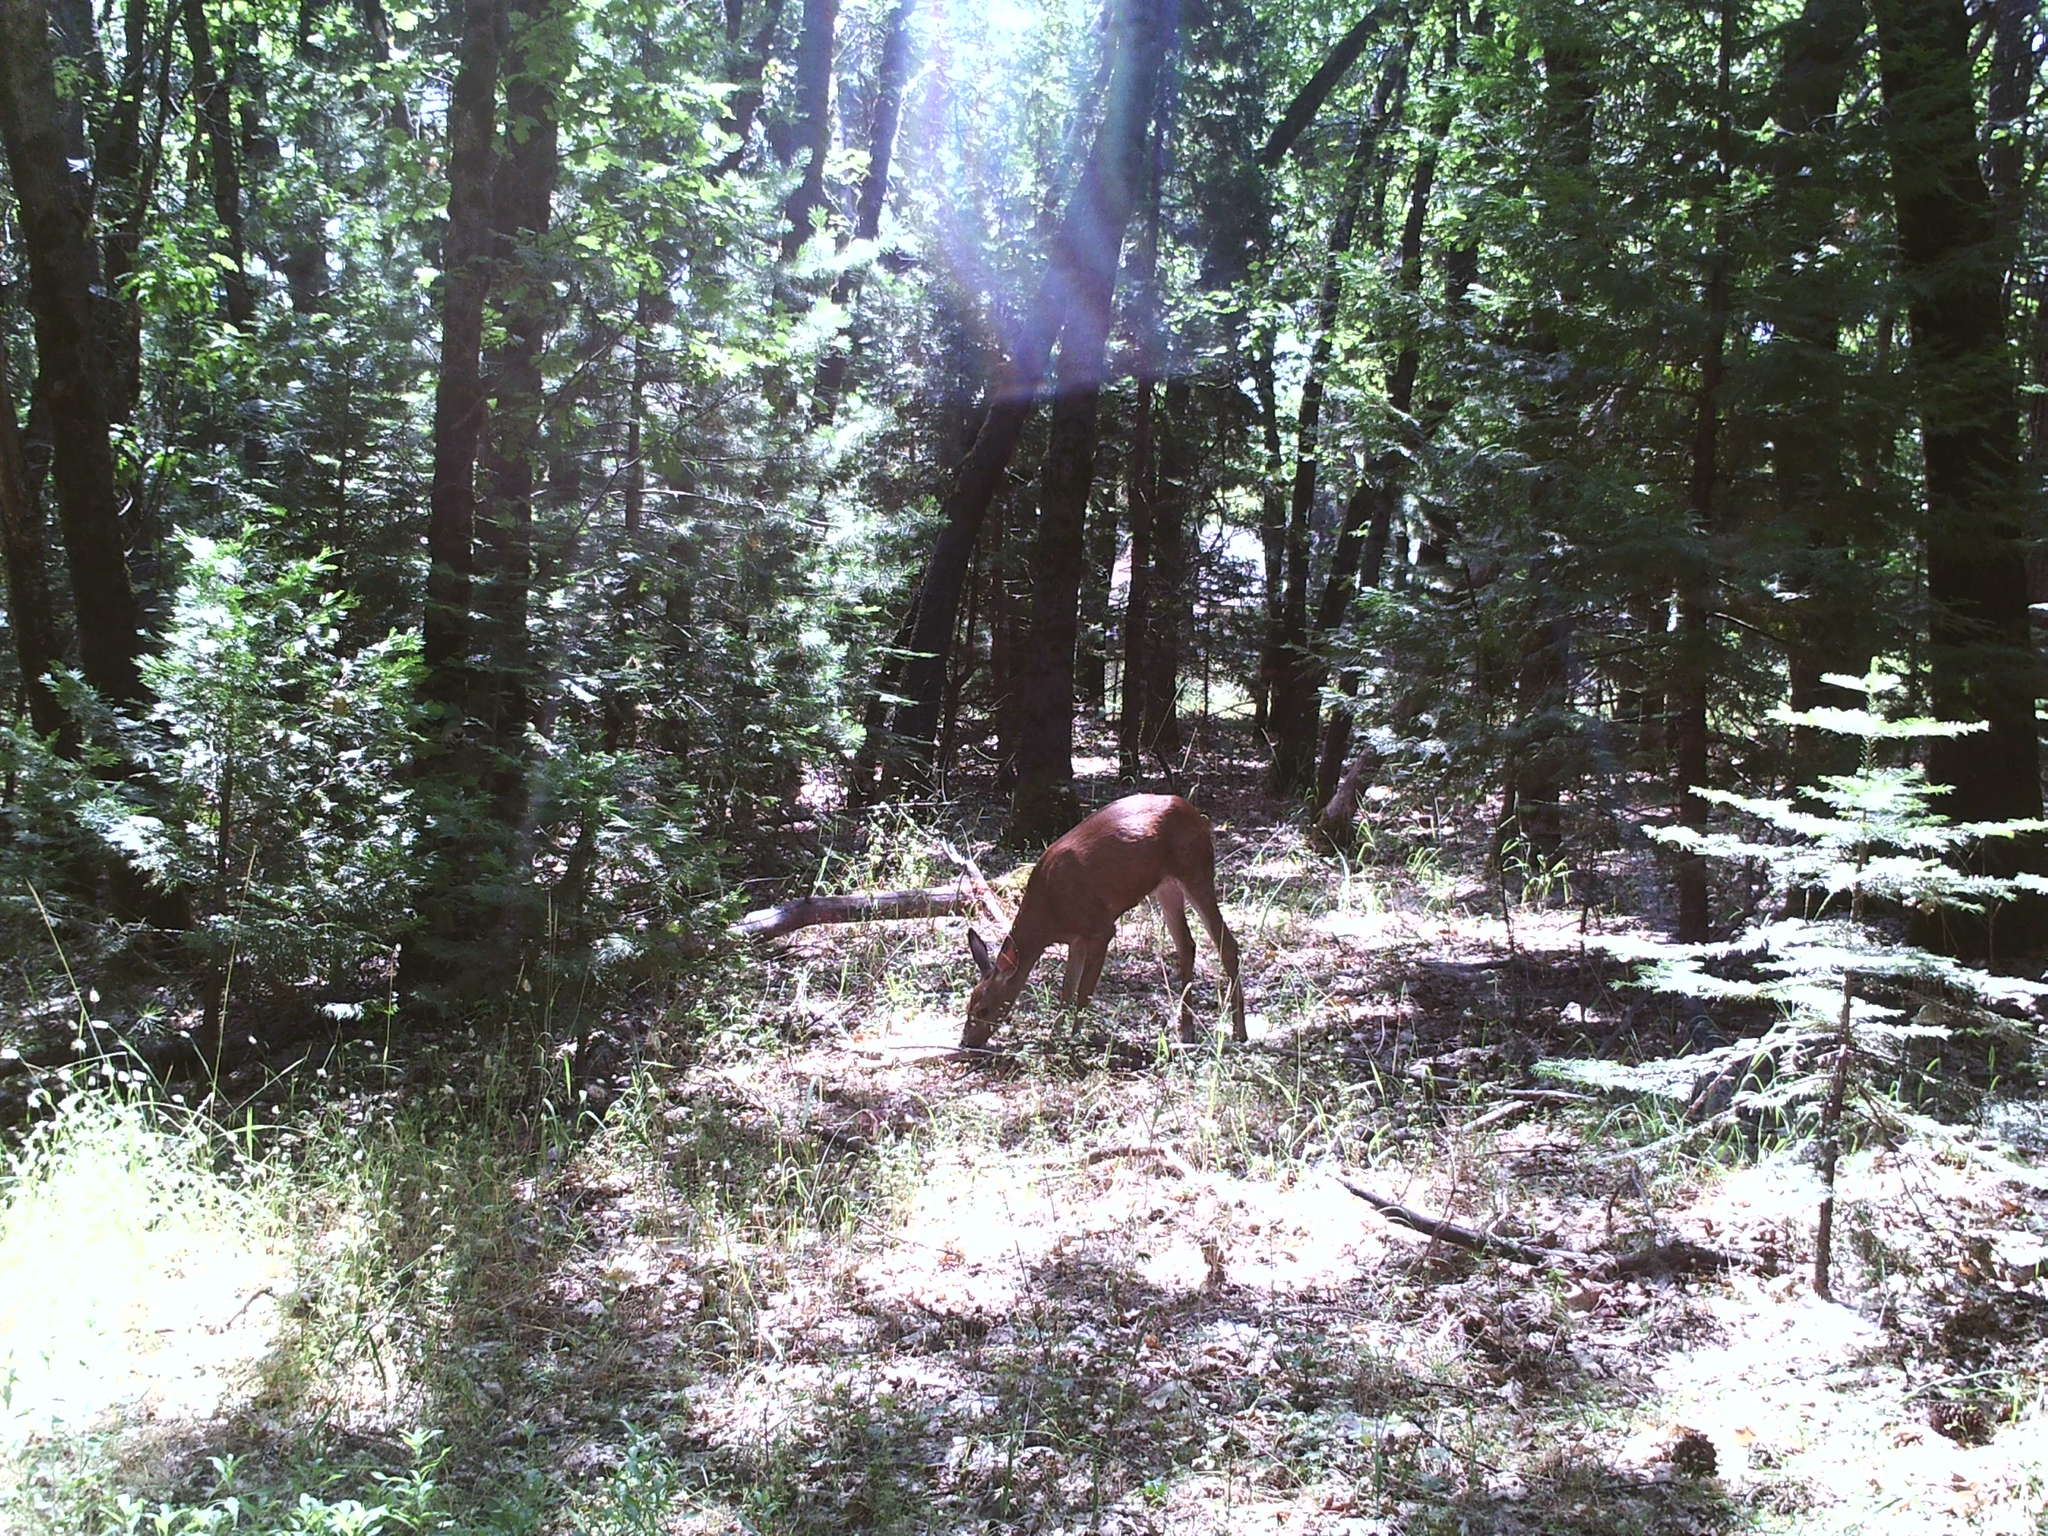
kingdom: Animalia
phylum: Chordata
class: Mammalia
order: Artiodactyla
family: Cervidae
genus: Odocoileus
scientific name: Odocoileus hemionus
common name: Mule deer
